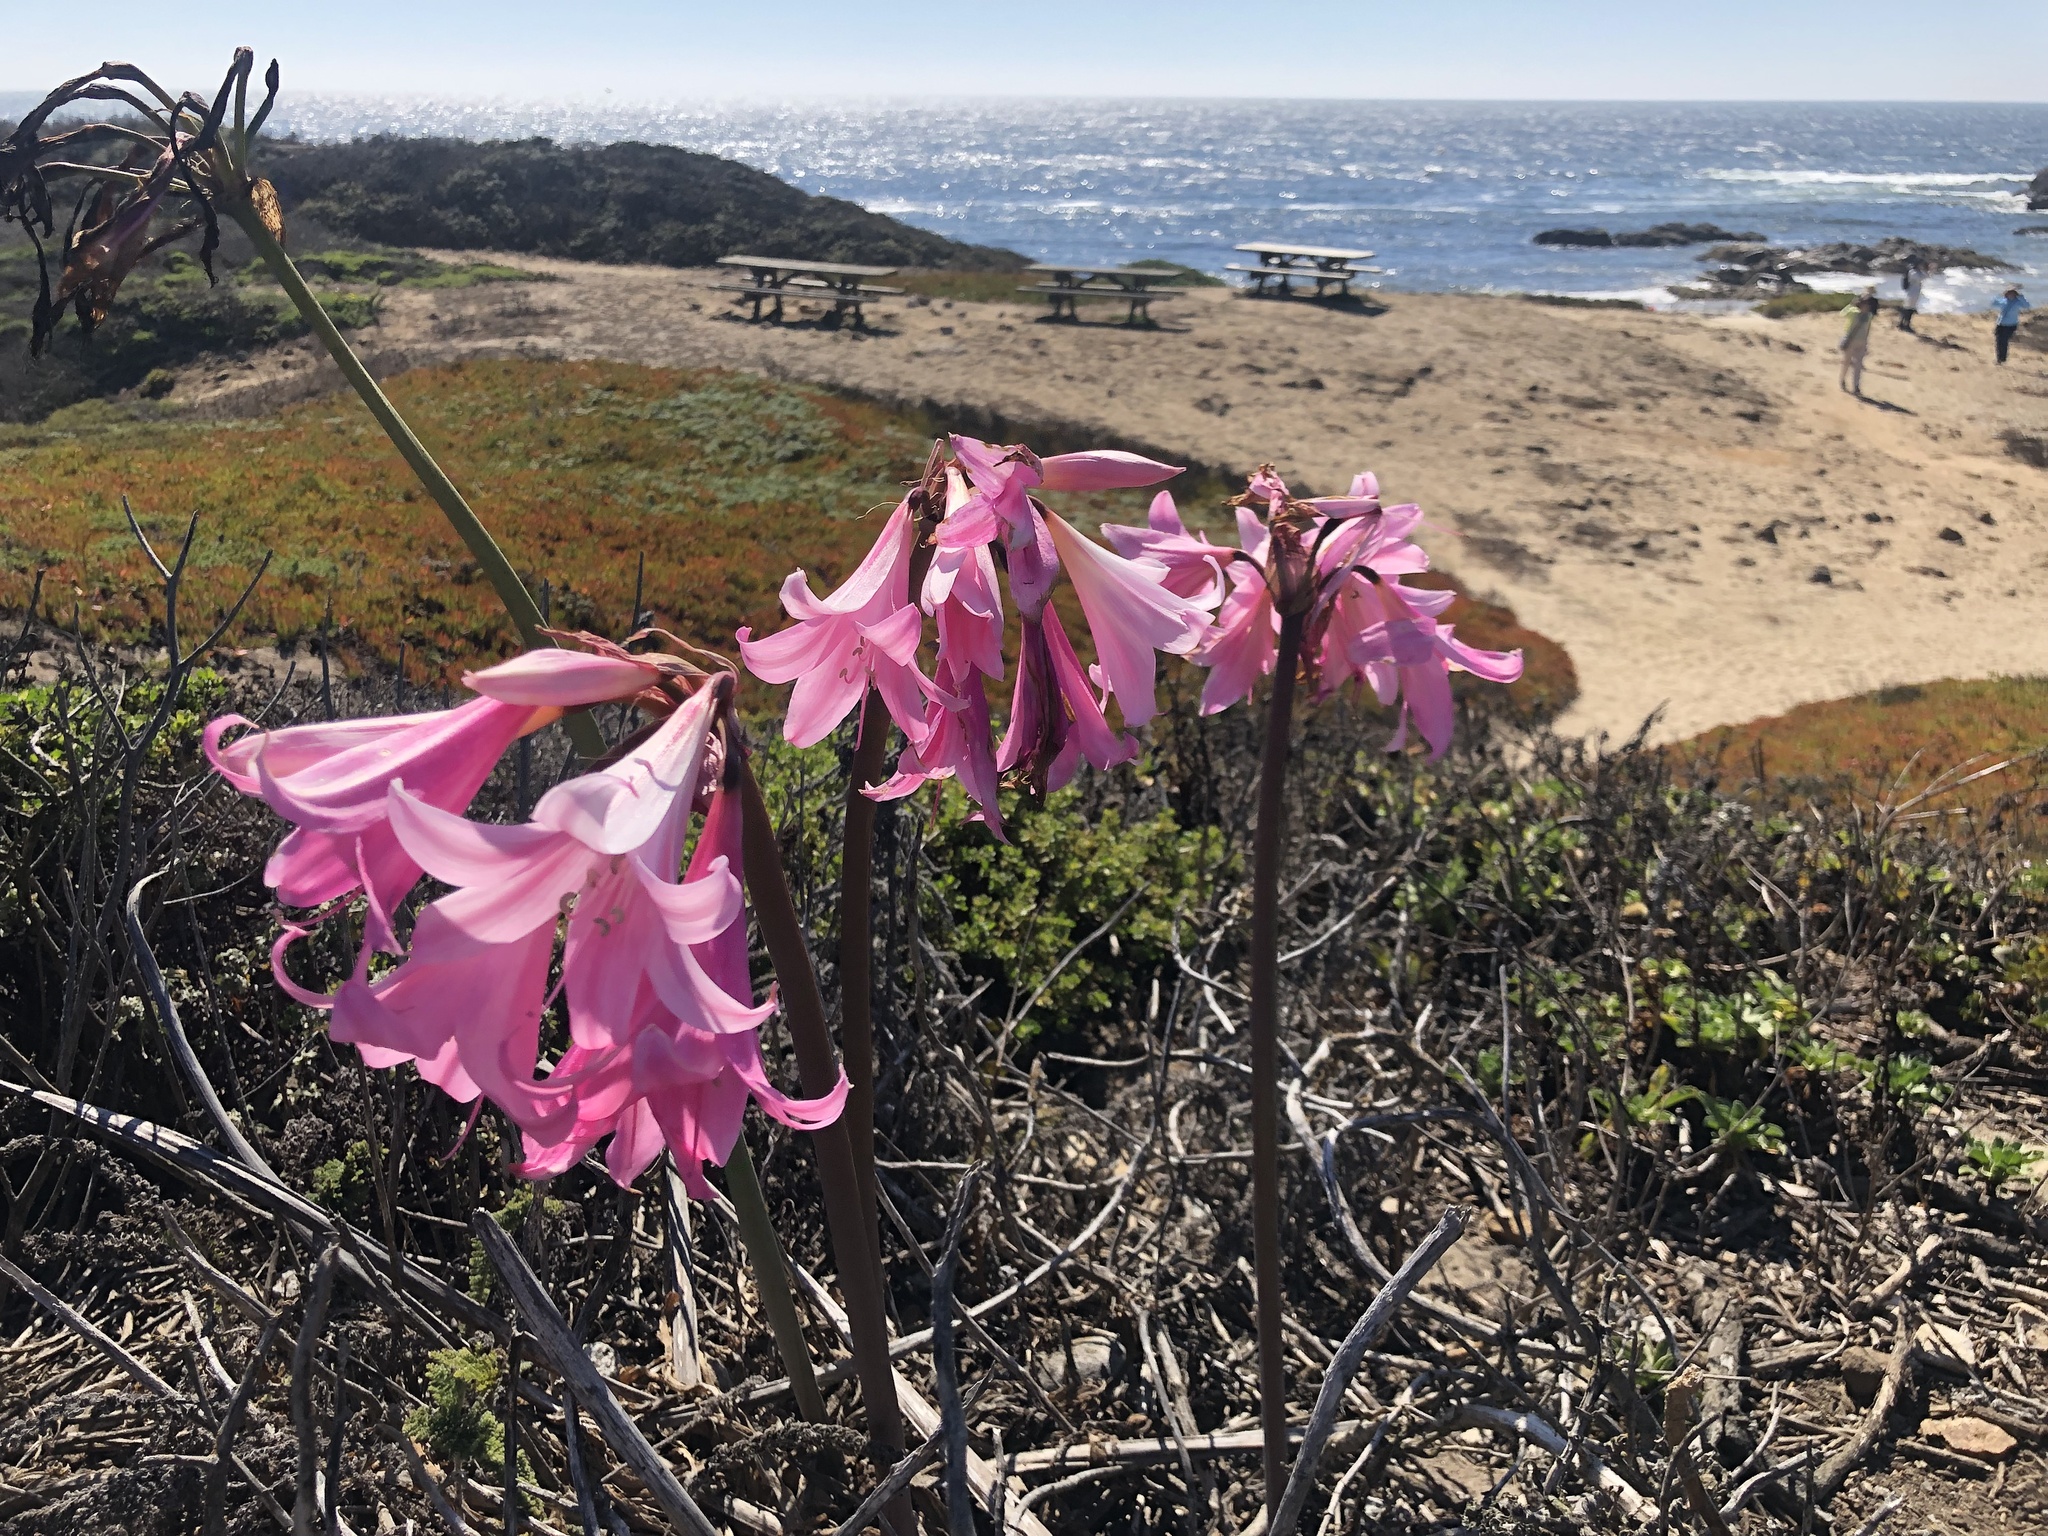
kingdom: Plantae
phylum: Tracheophyta
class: Liliopsida
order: Asparagales
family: Amaryllidaceae
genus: Amaryllis
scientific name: Amaryllis belladonna
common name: Jersey lily
